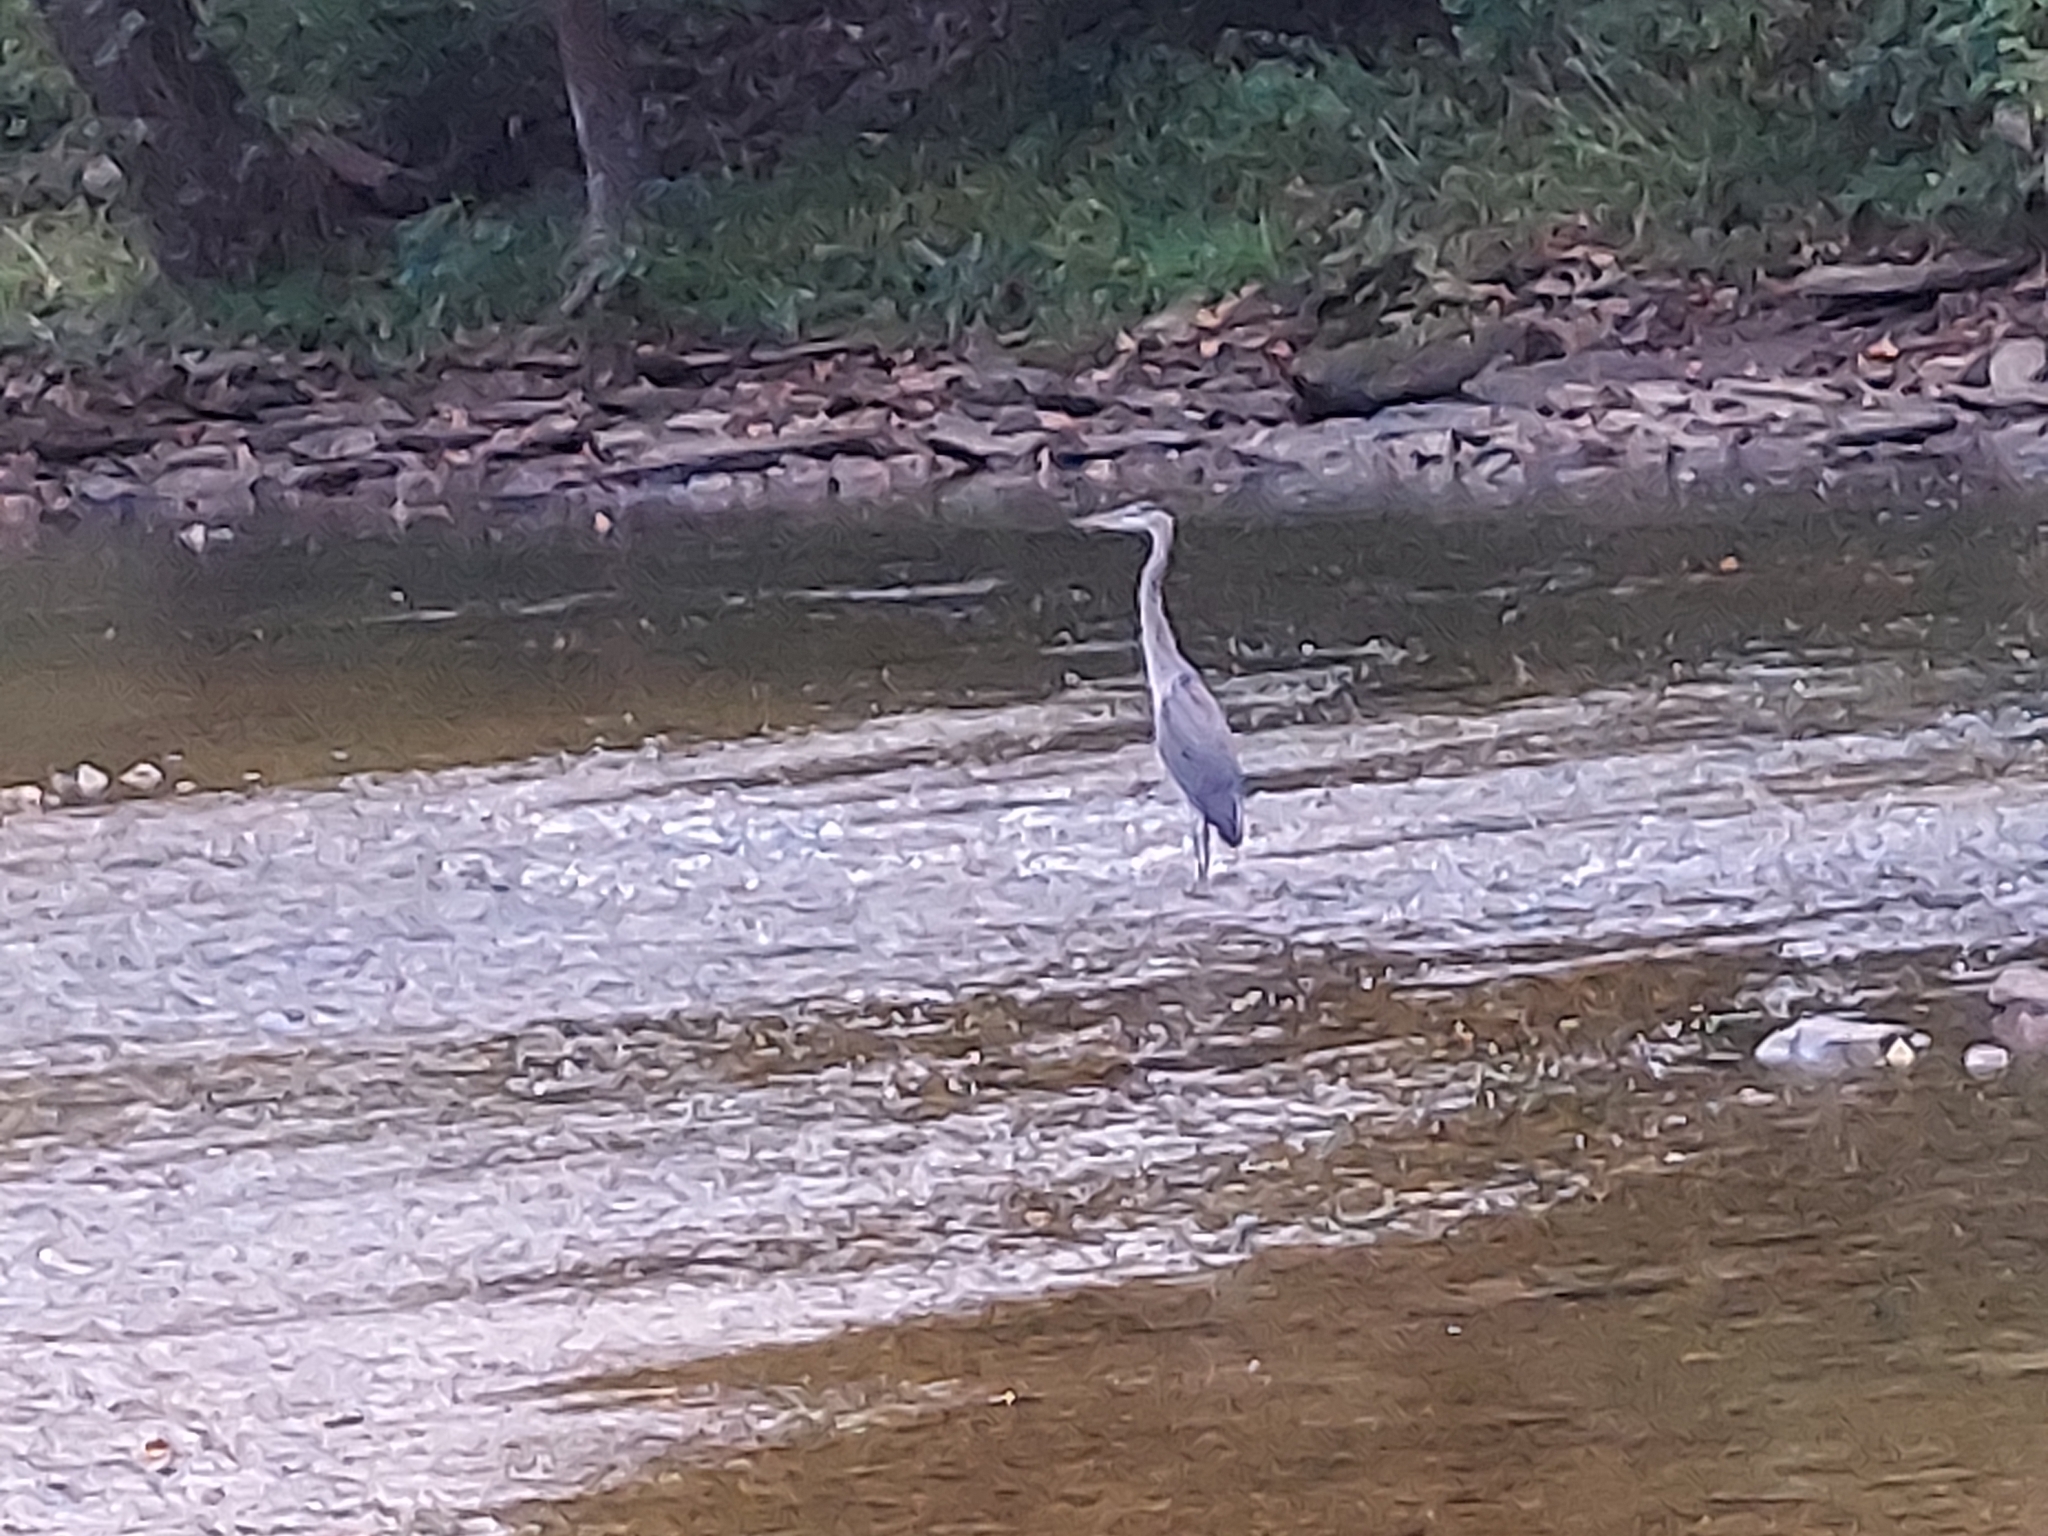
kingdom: Animalia
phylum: Chordata
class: Aves
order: Pelecaniformes
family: Ardeidae
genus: Ardea
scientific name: Ardea herodias
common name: Great blue heron
